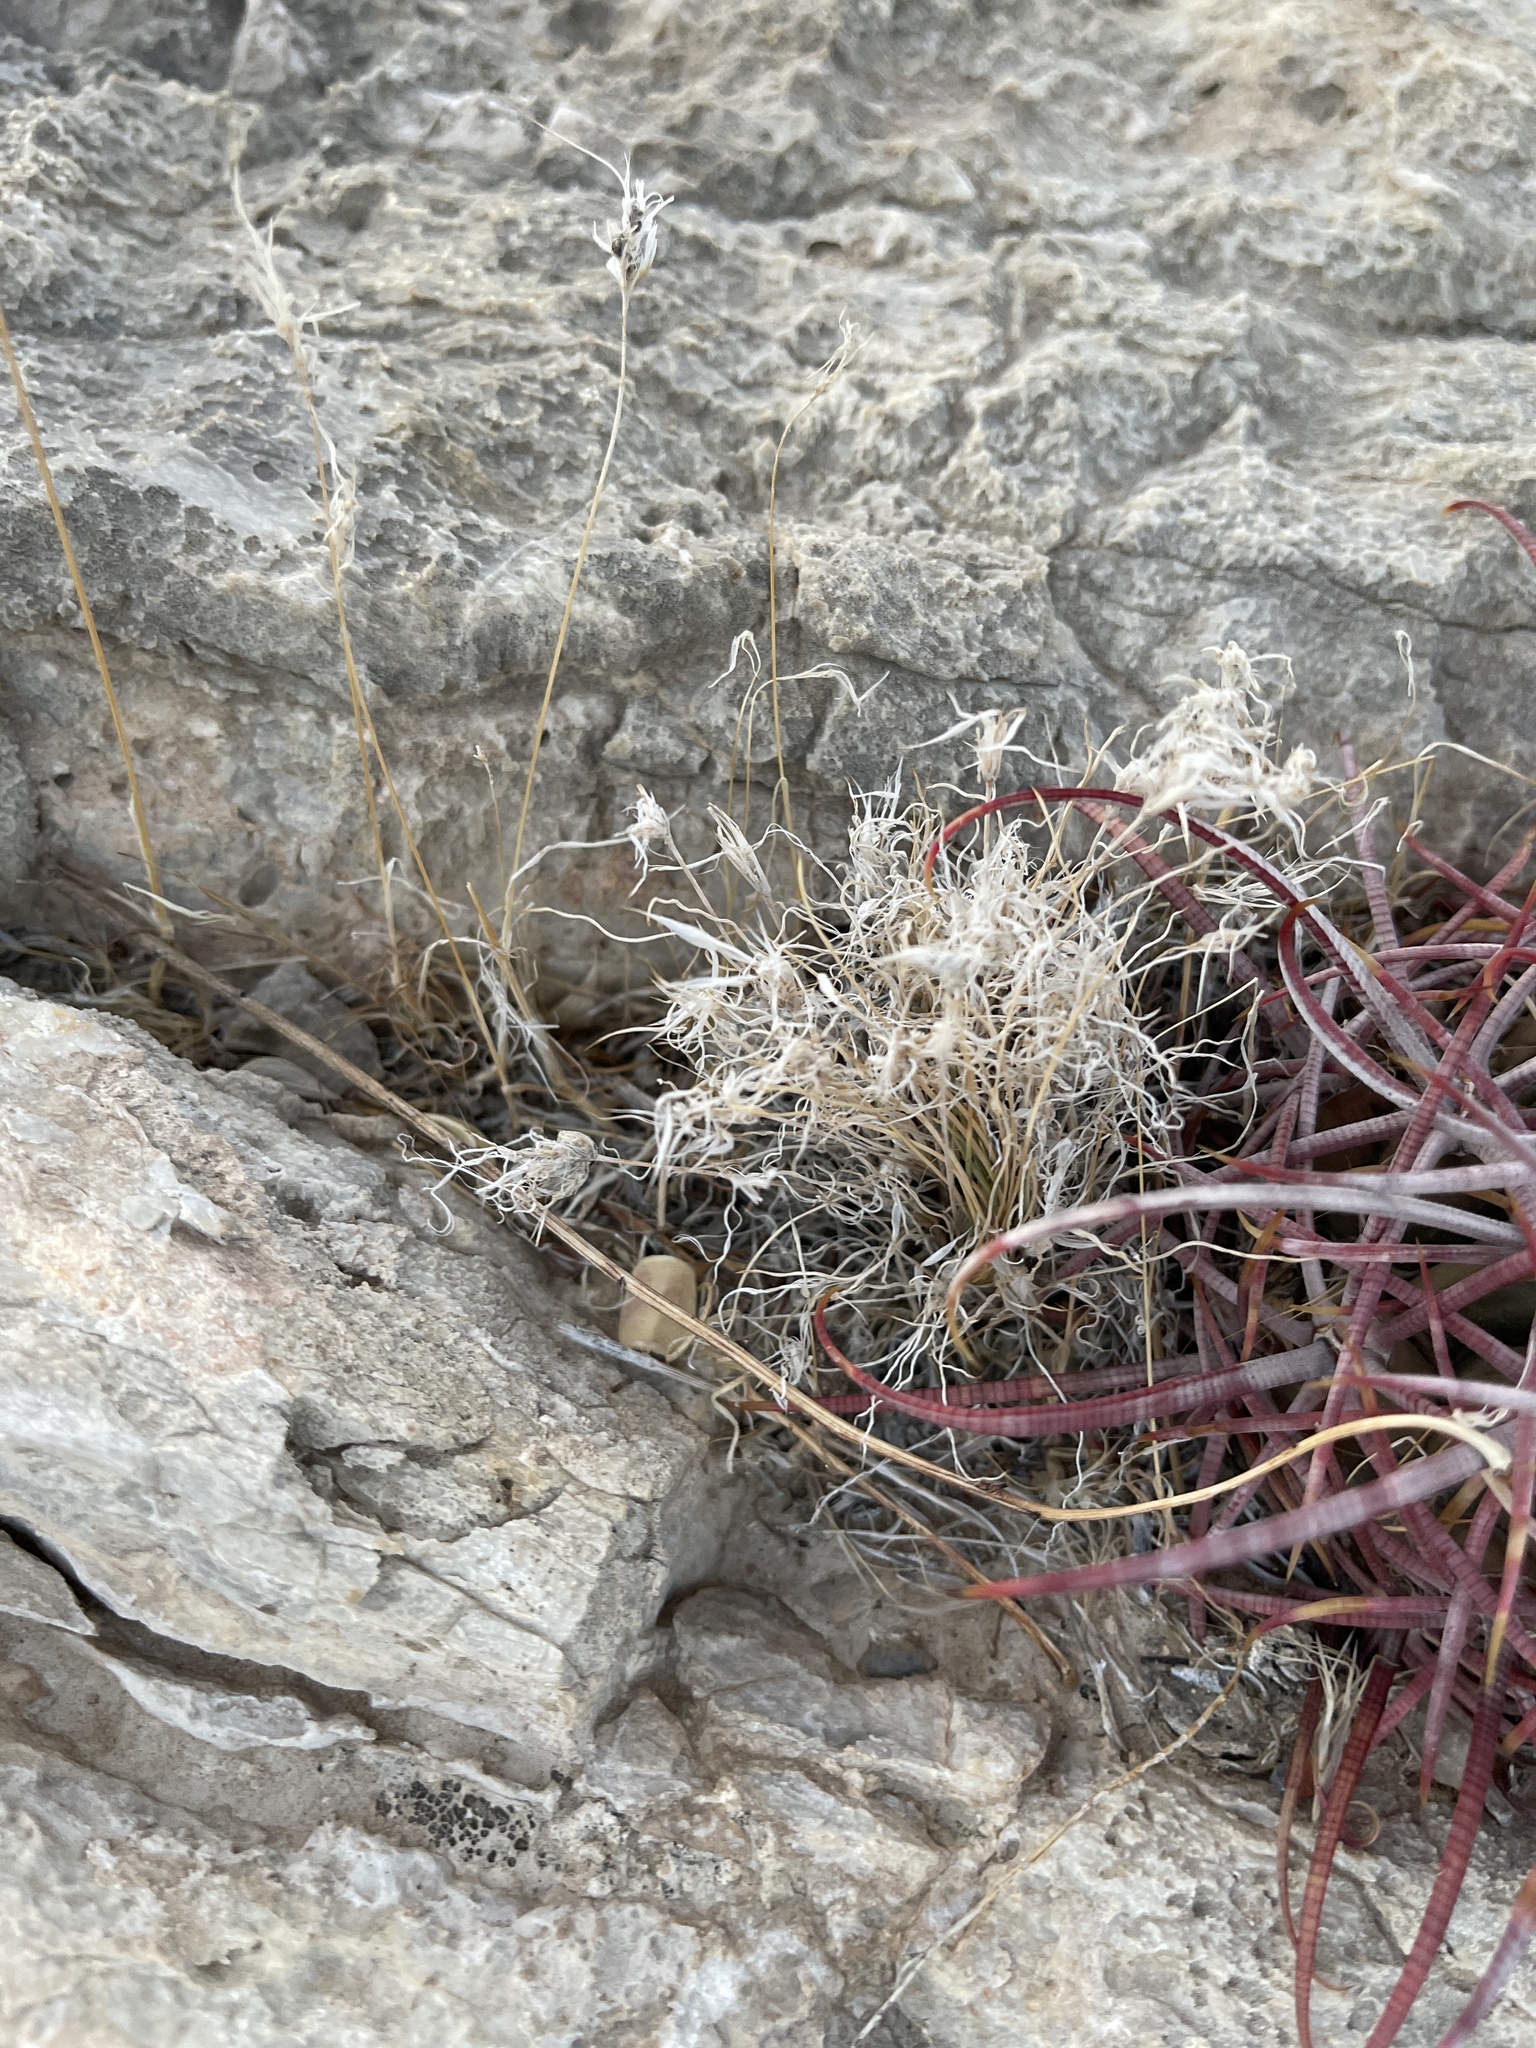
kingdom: Plantae
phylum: Tracheophyta
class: Liliopsida
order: Poales
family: Poaceae
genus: Dasyochloa
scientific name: Dasyochloa pulchella
